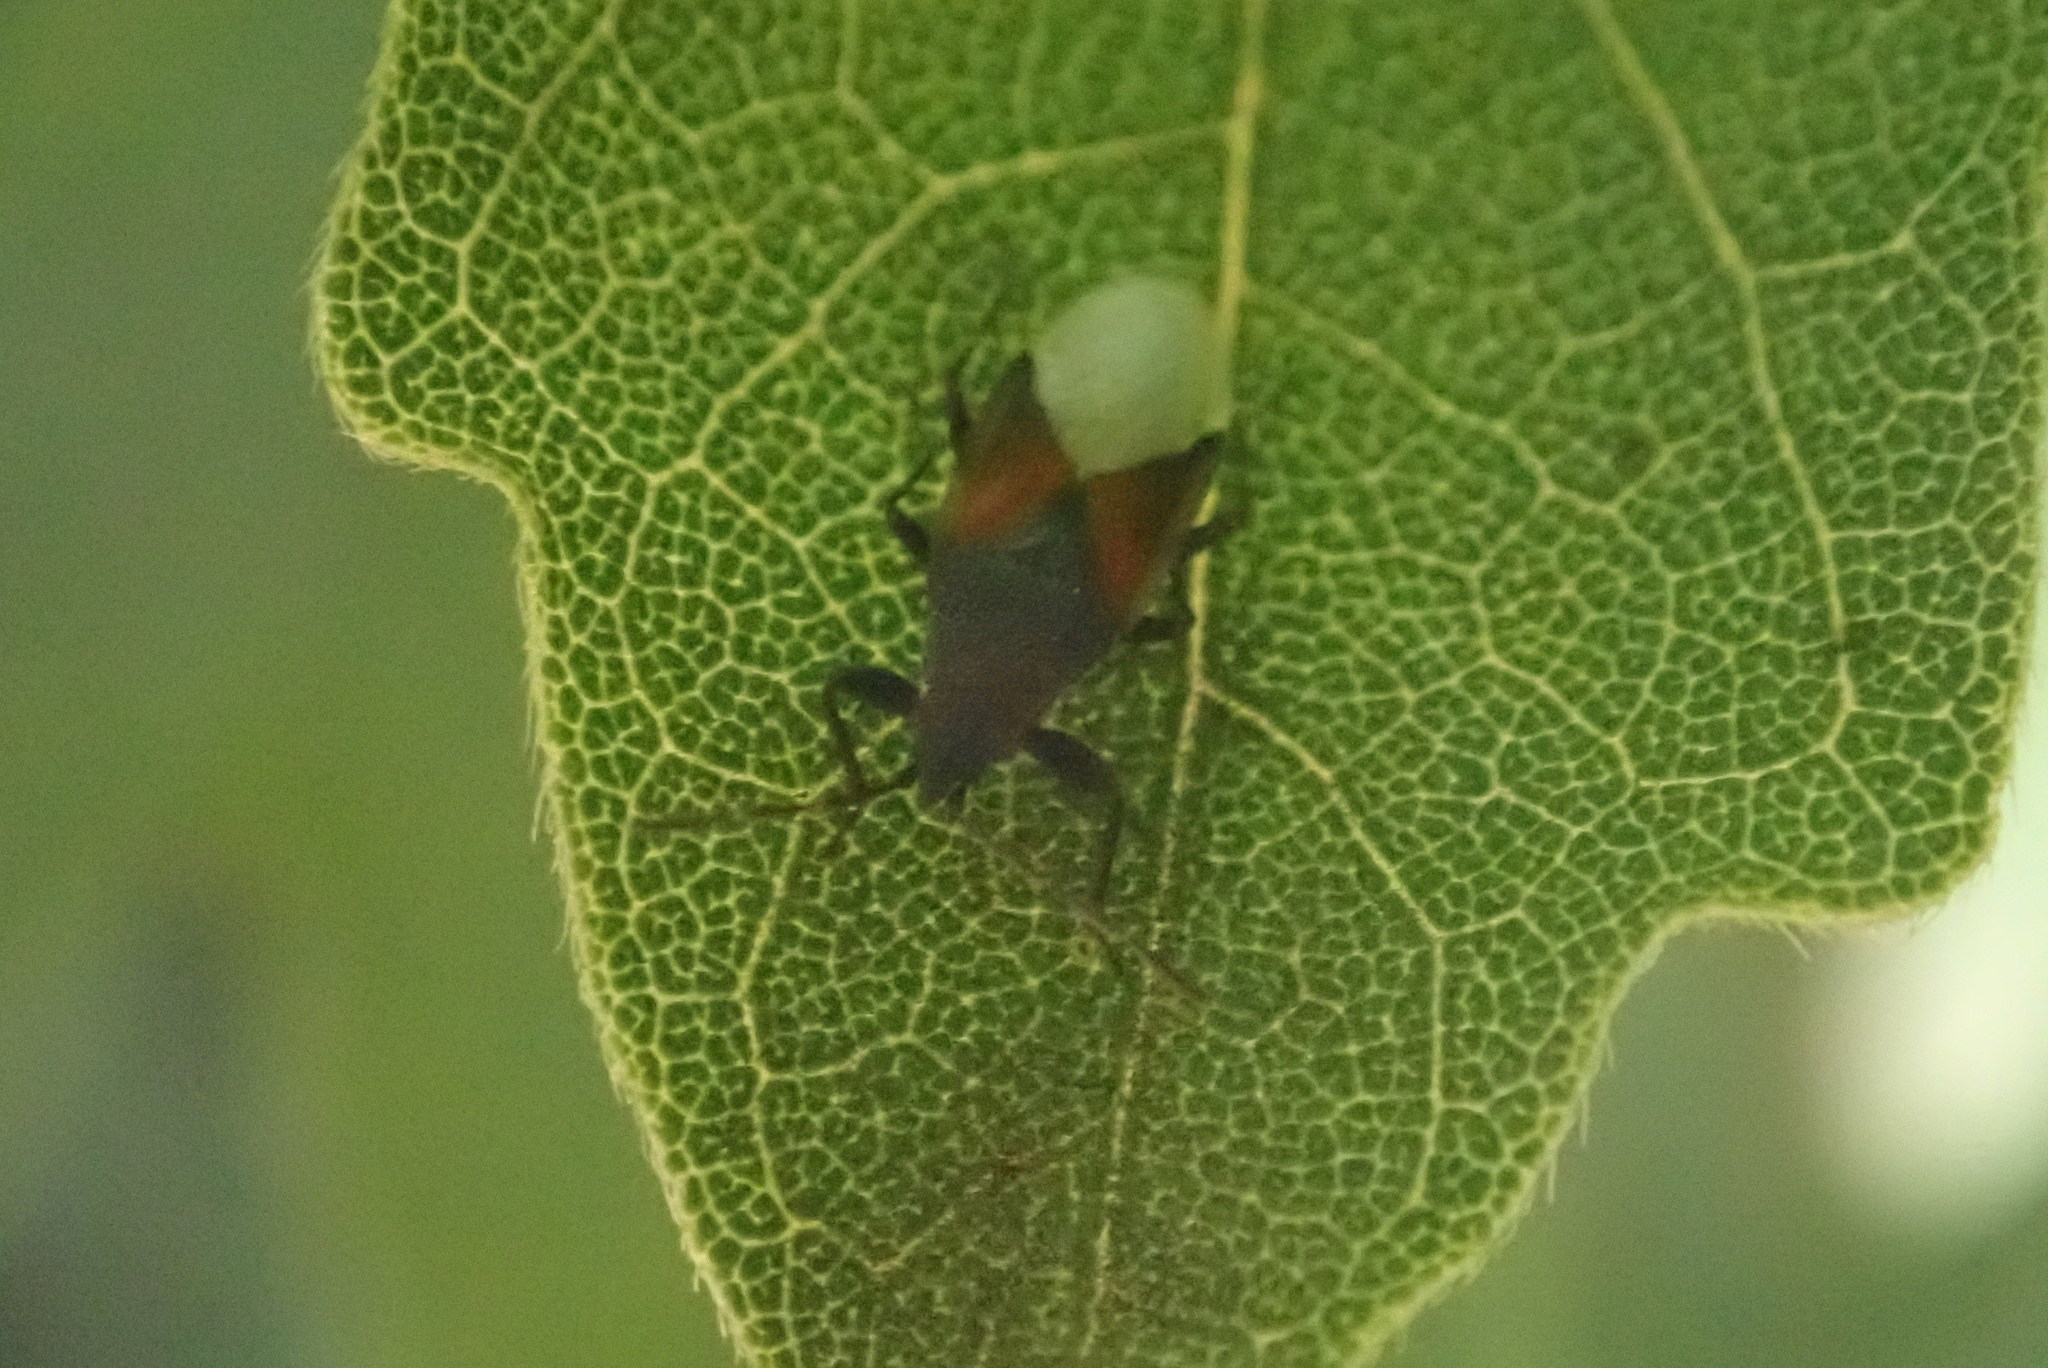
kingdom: Animalia
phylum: Arthropoda
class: Insecta
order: Hemiptera
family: Oxycarenidae
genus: Oxycarenus
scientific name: Oxycarenus lavaterae
